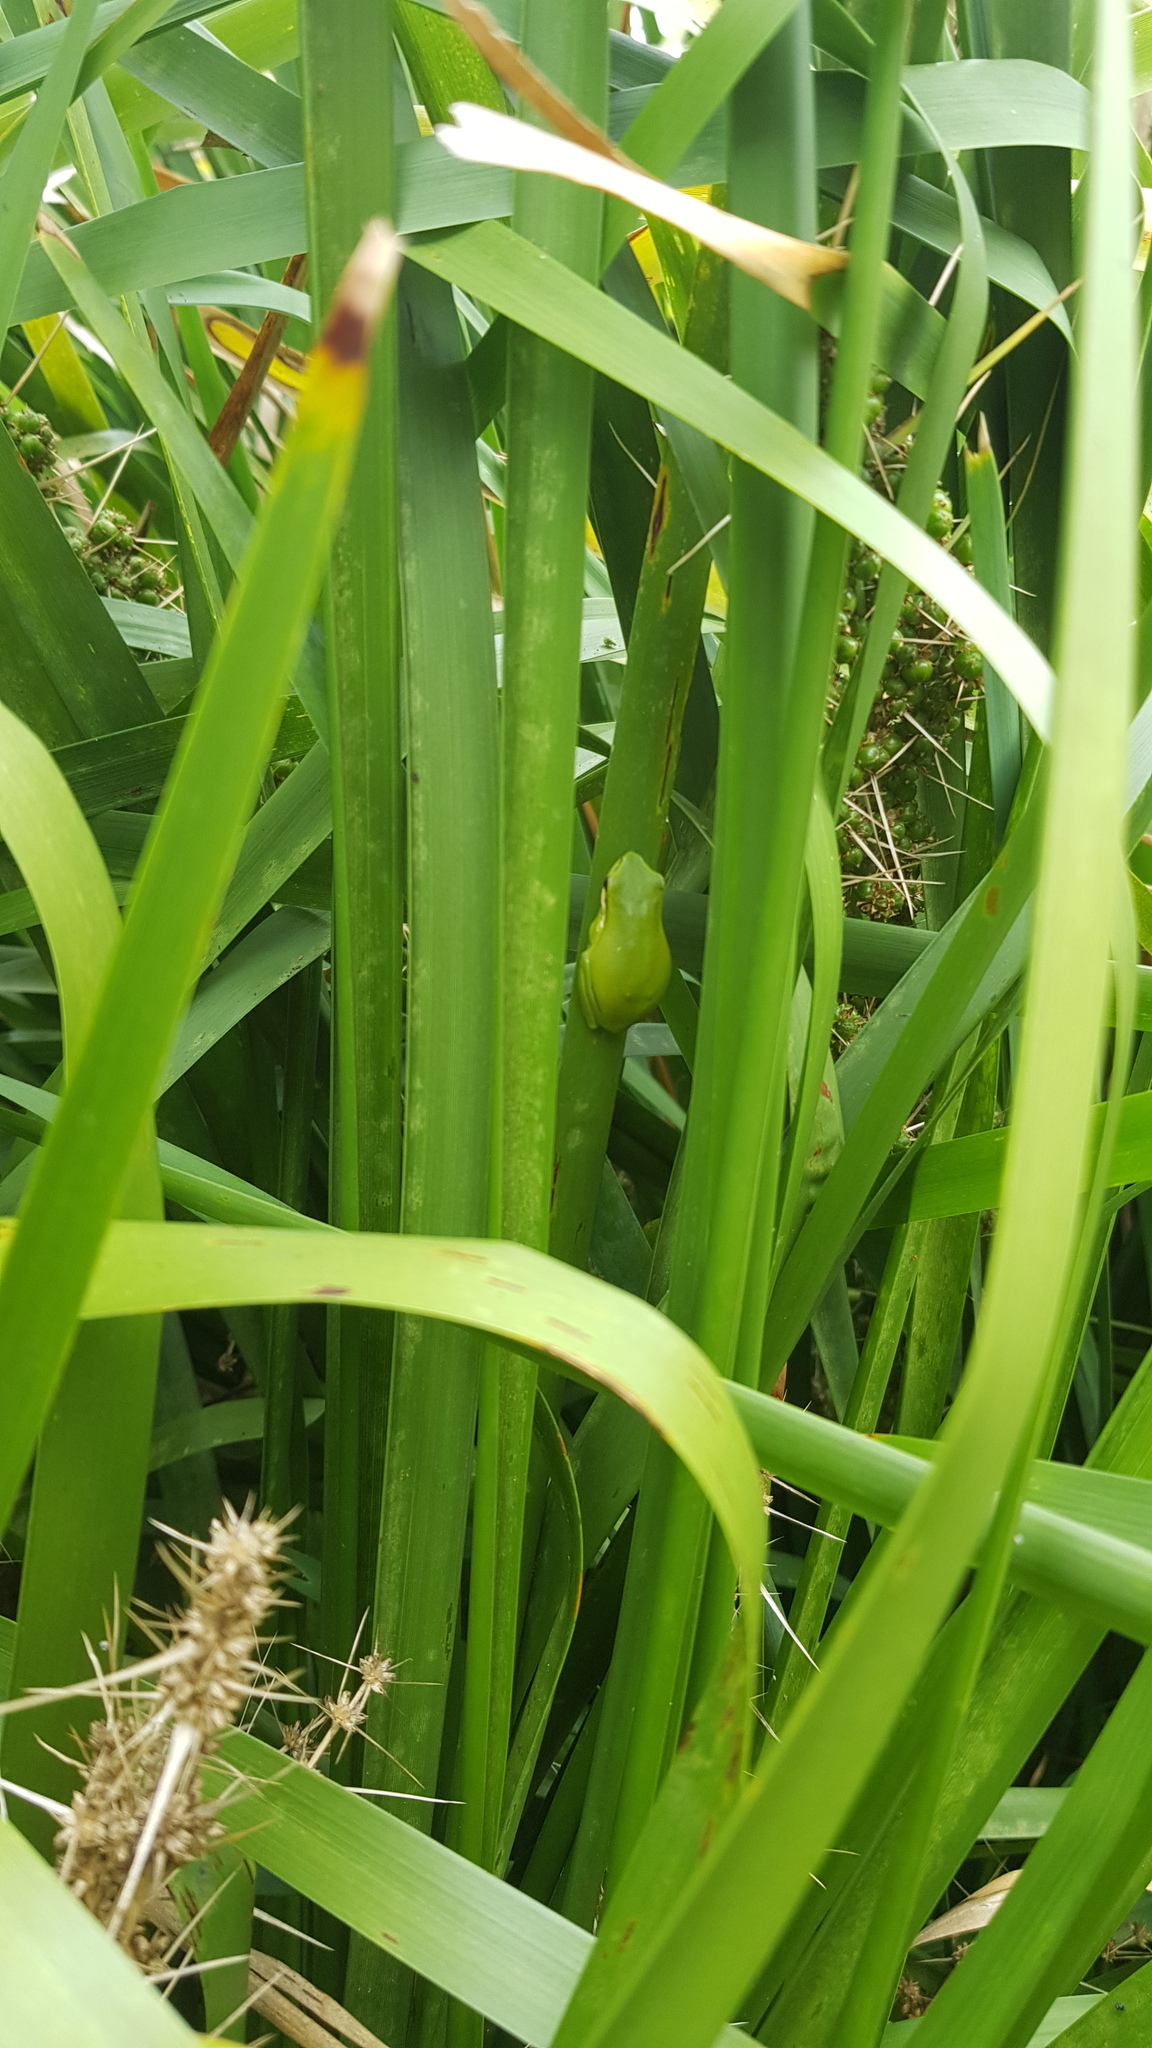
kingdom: Animalia
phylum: Chordata
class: Amphibia
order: Anura
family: Pelodryadidae
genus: Litoria
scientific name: Litoria fallax
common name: Eastern dwarf treefrog
